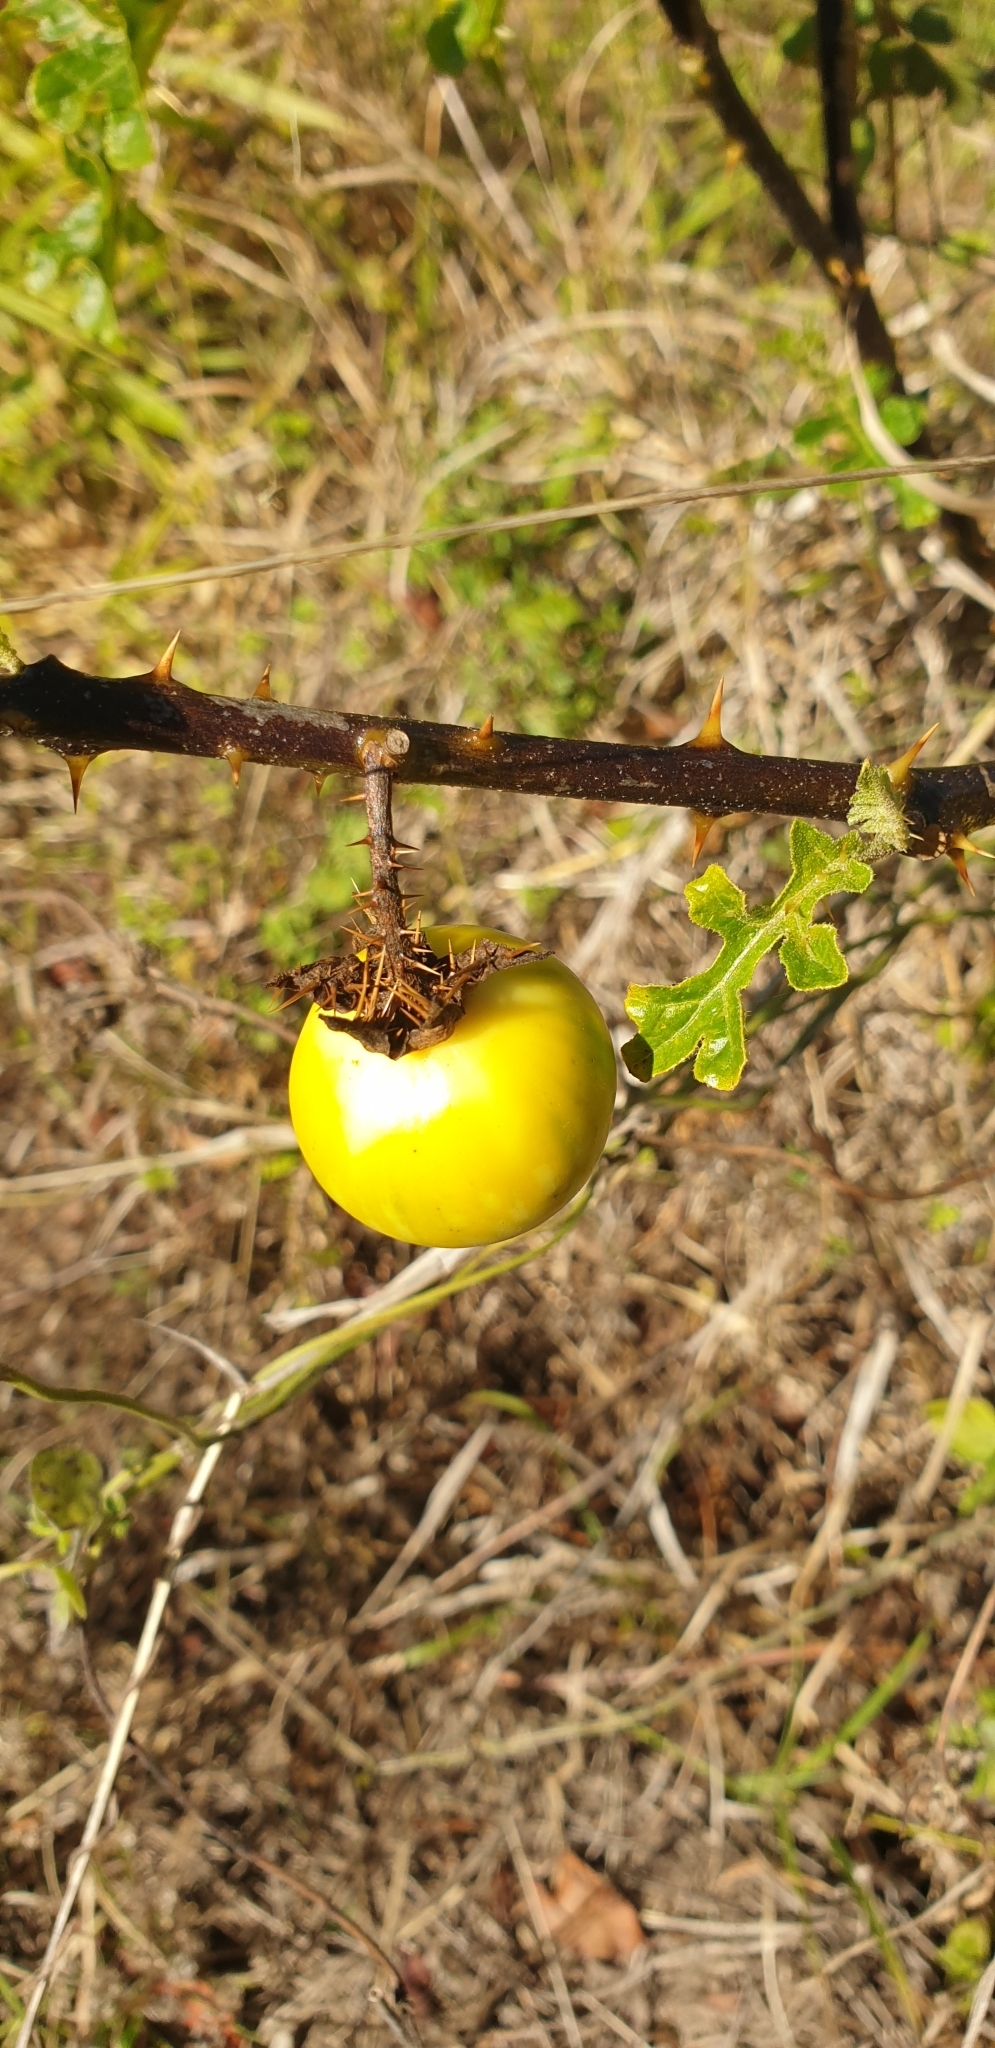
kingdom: Plantae
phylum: Tracheophyta
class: Magnoliopsida
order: Solanales
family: Solanaceae
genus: Solanum
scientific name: Solanum linnaeanum
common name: Nightshade
